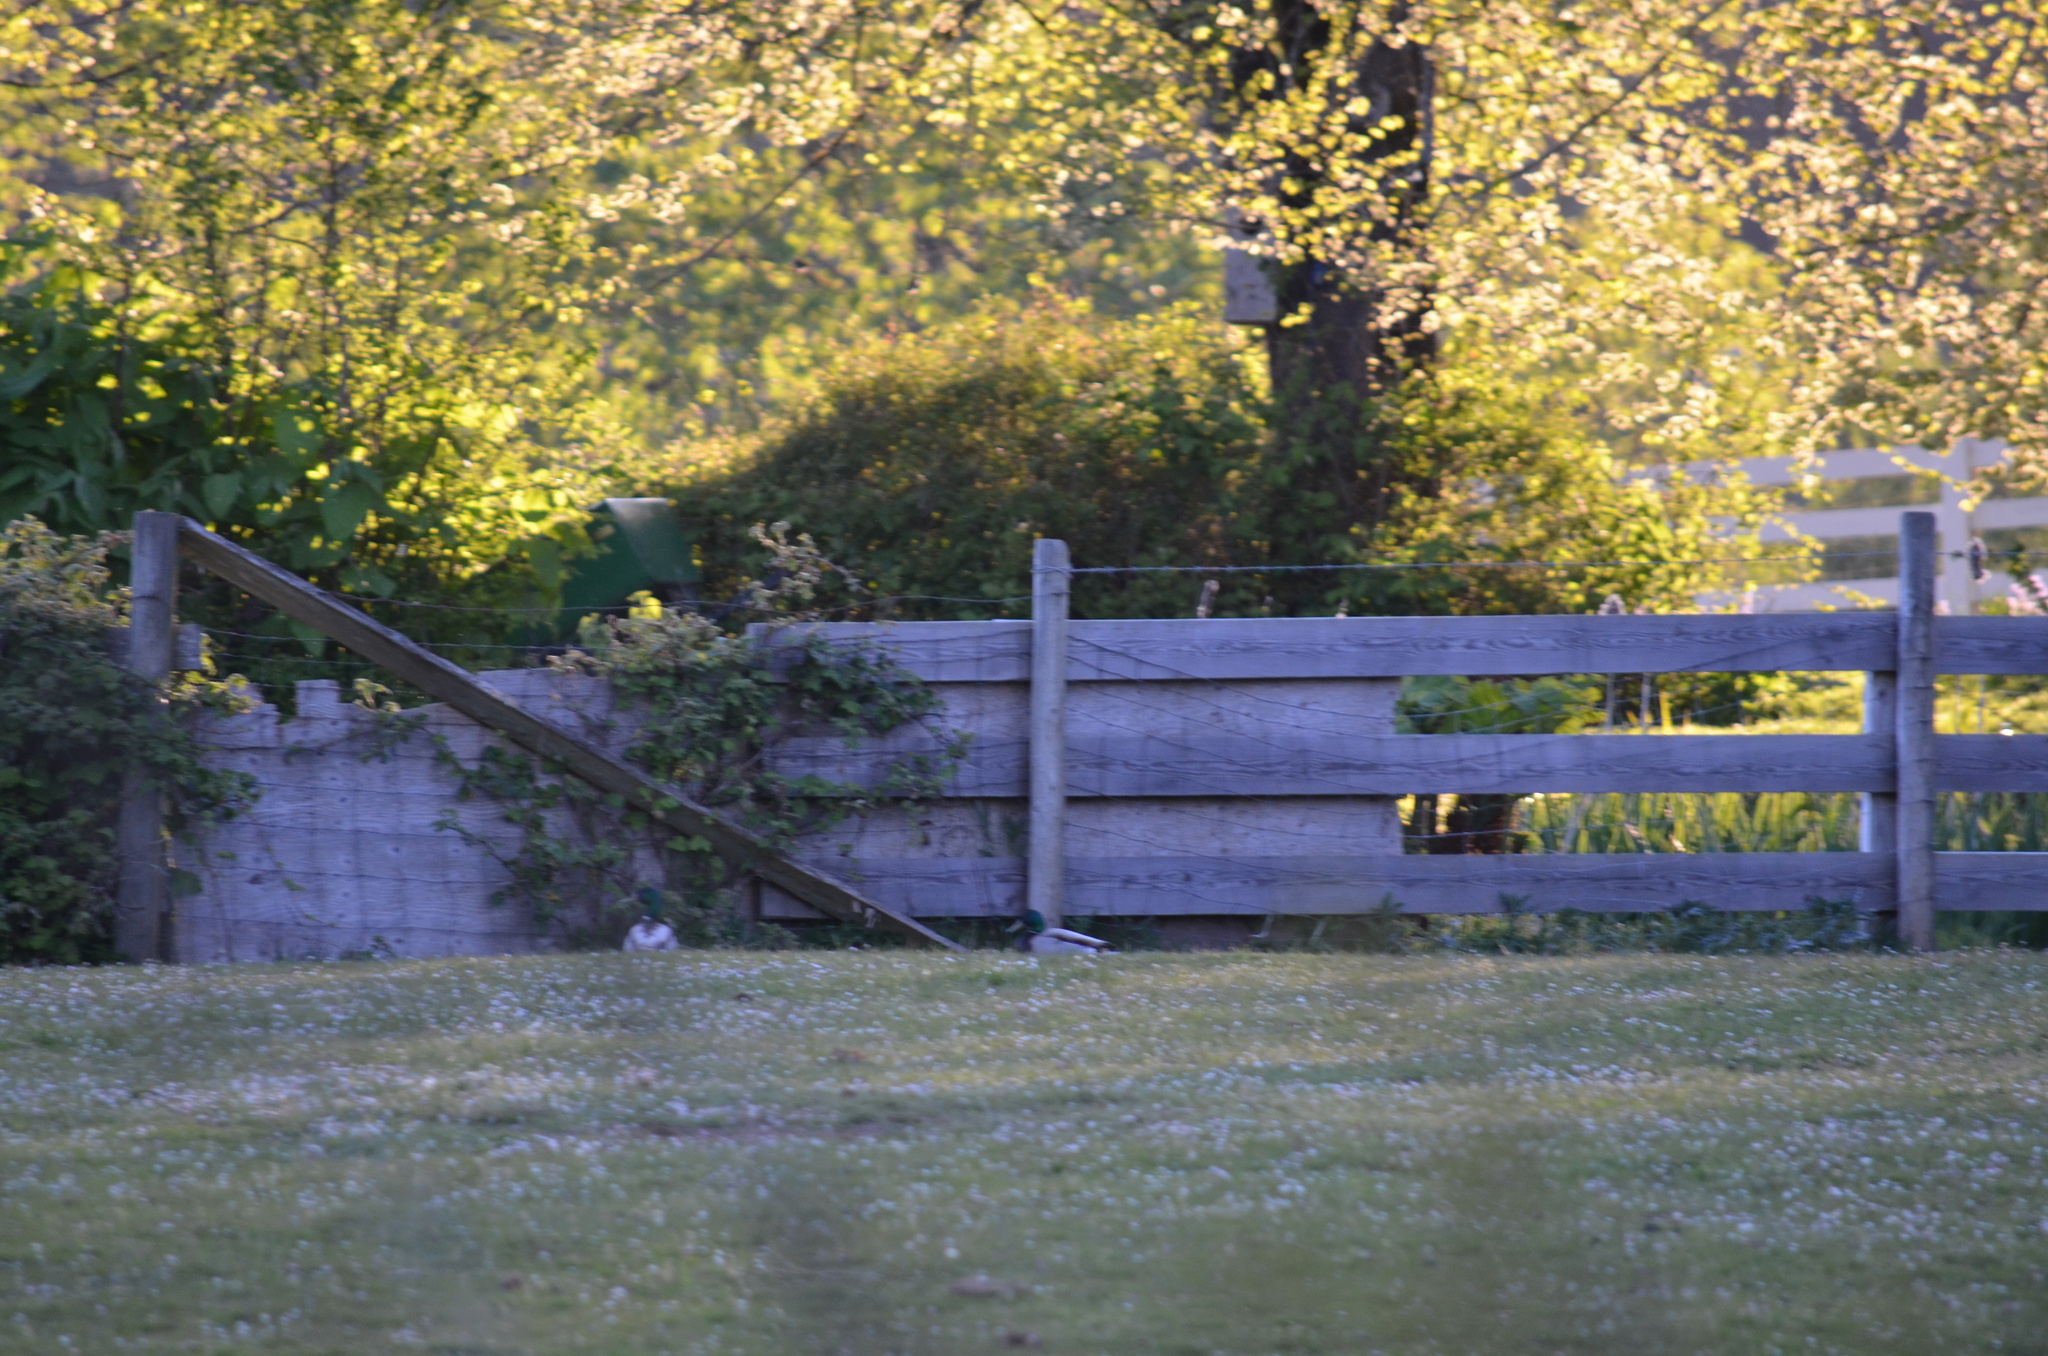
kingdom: Animalia
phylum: Chordata
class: Aves
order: Anseriformes
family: Anatidae
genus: Anas
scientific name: Anas platyrhynchos
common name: Mallard
